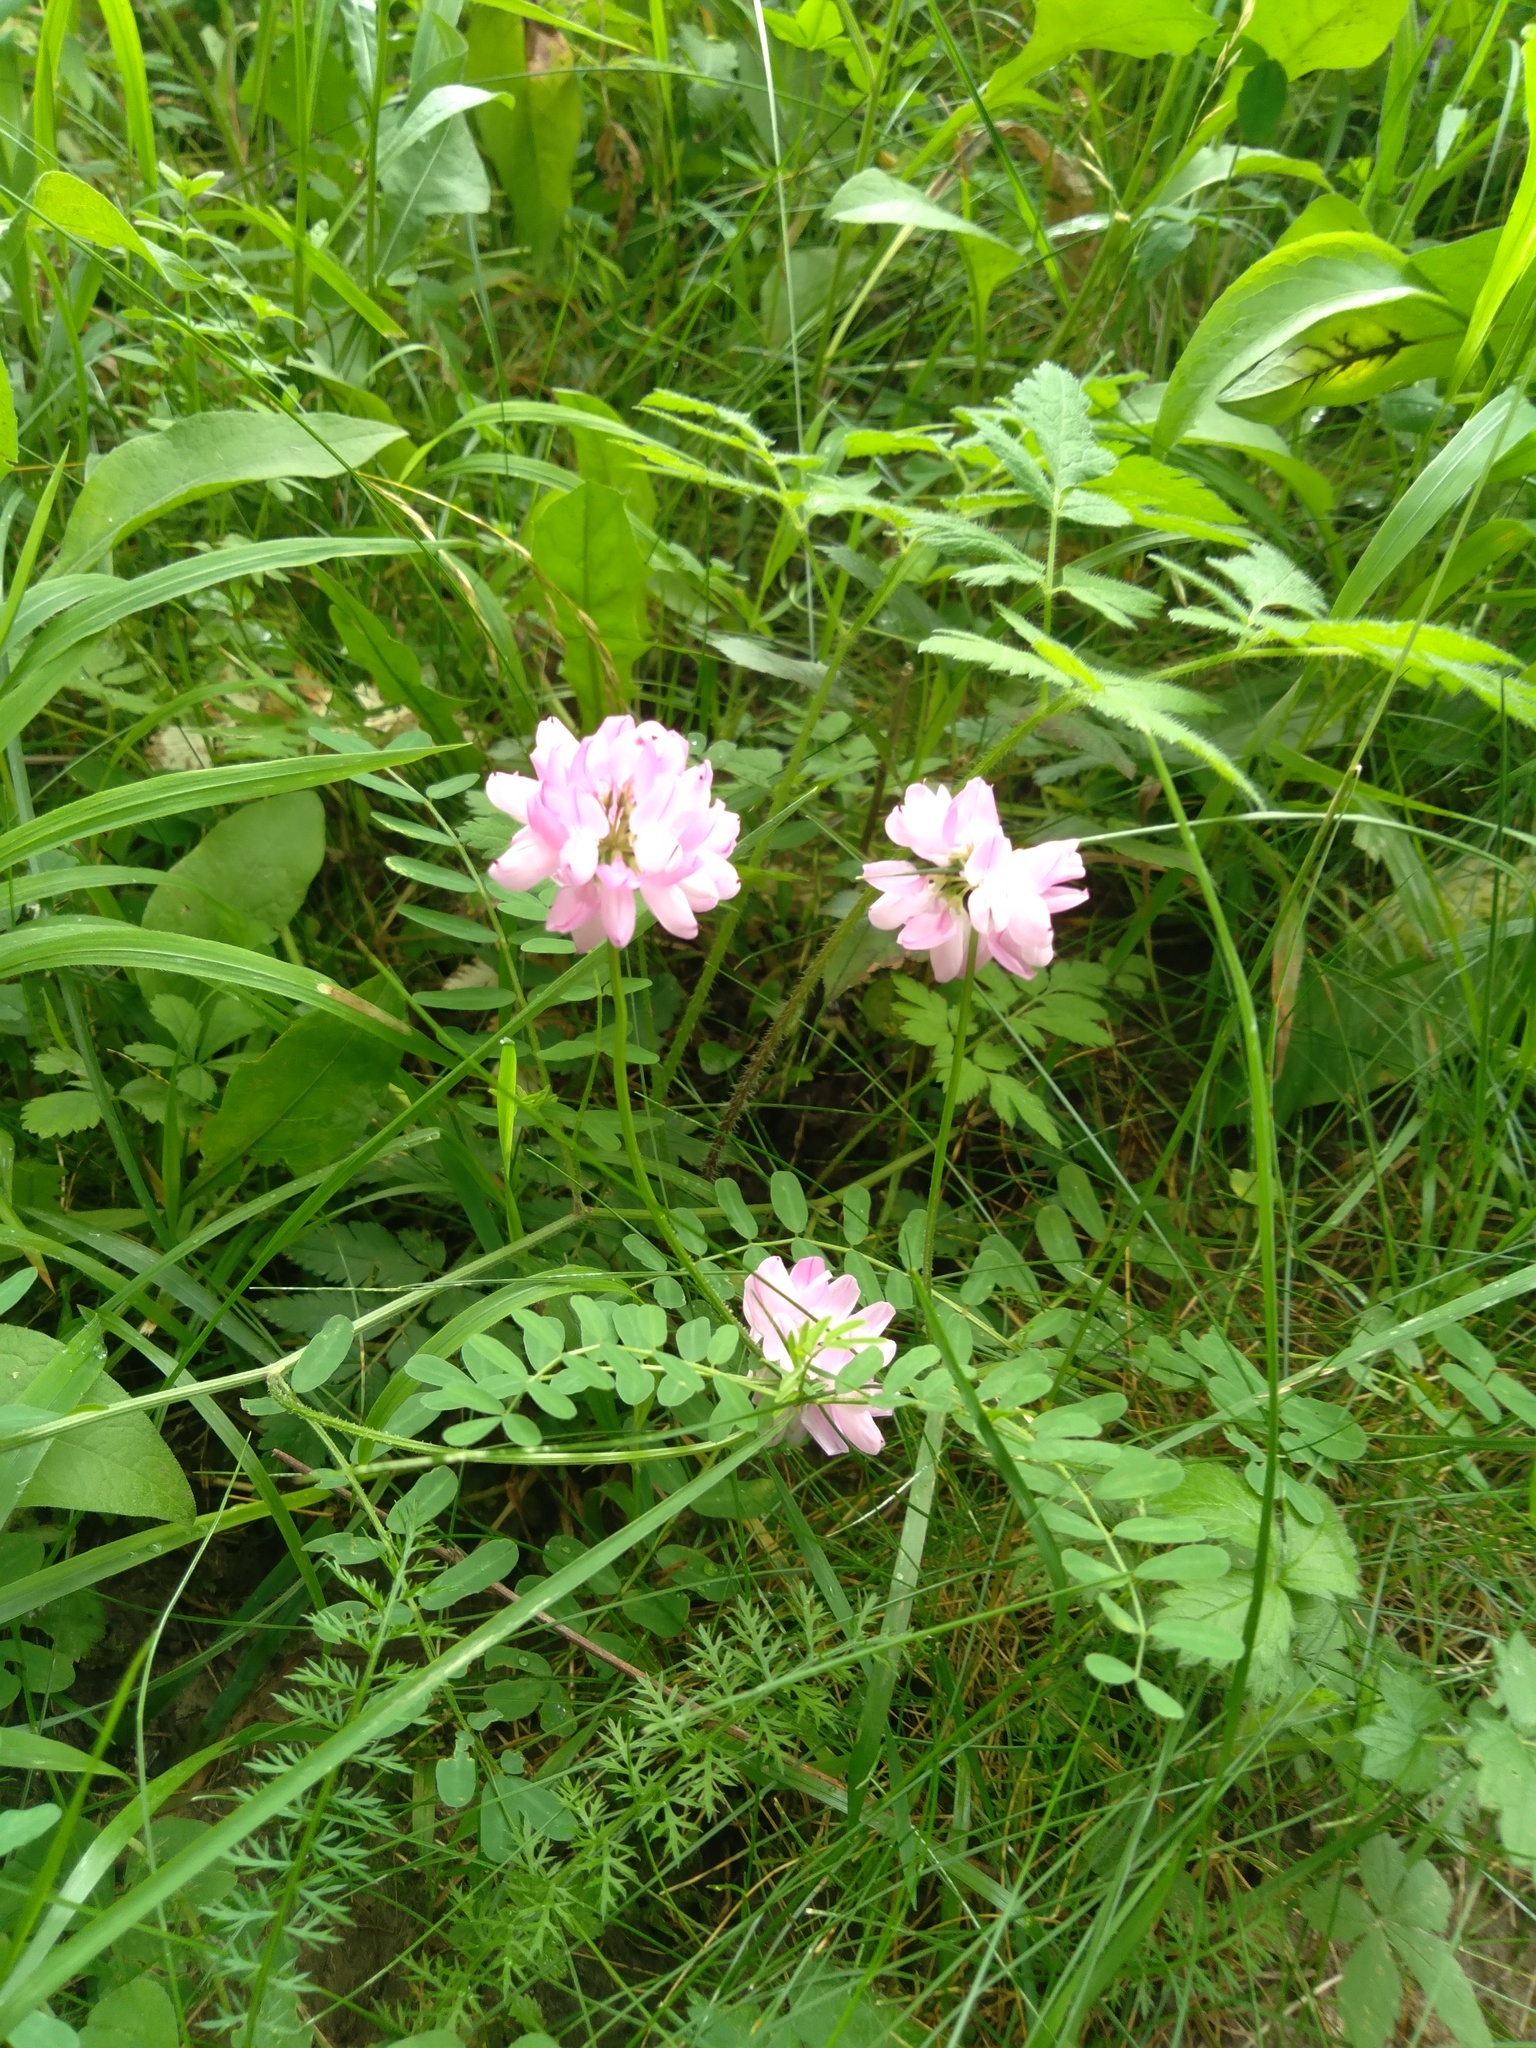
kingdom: Plantae
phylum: Tracheophyta
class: Magnoliopsida
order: Fabales
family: Fabaceae
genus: Coronilla
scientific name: Coronilla varia
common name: Crownvetch
